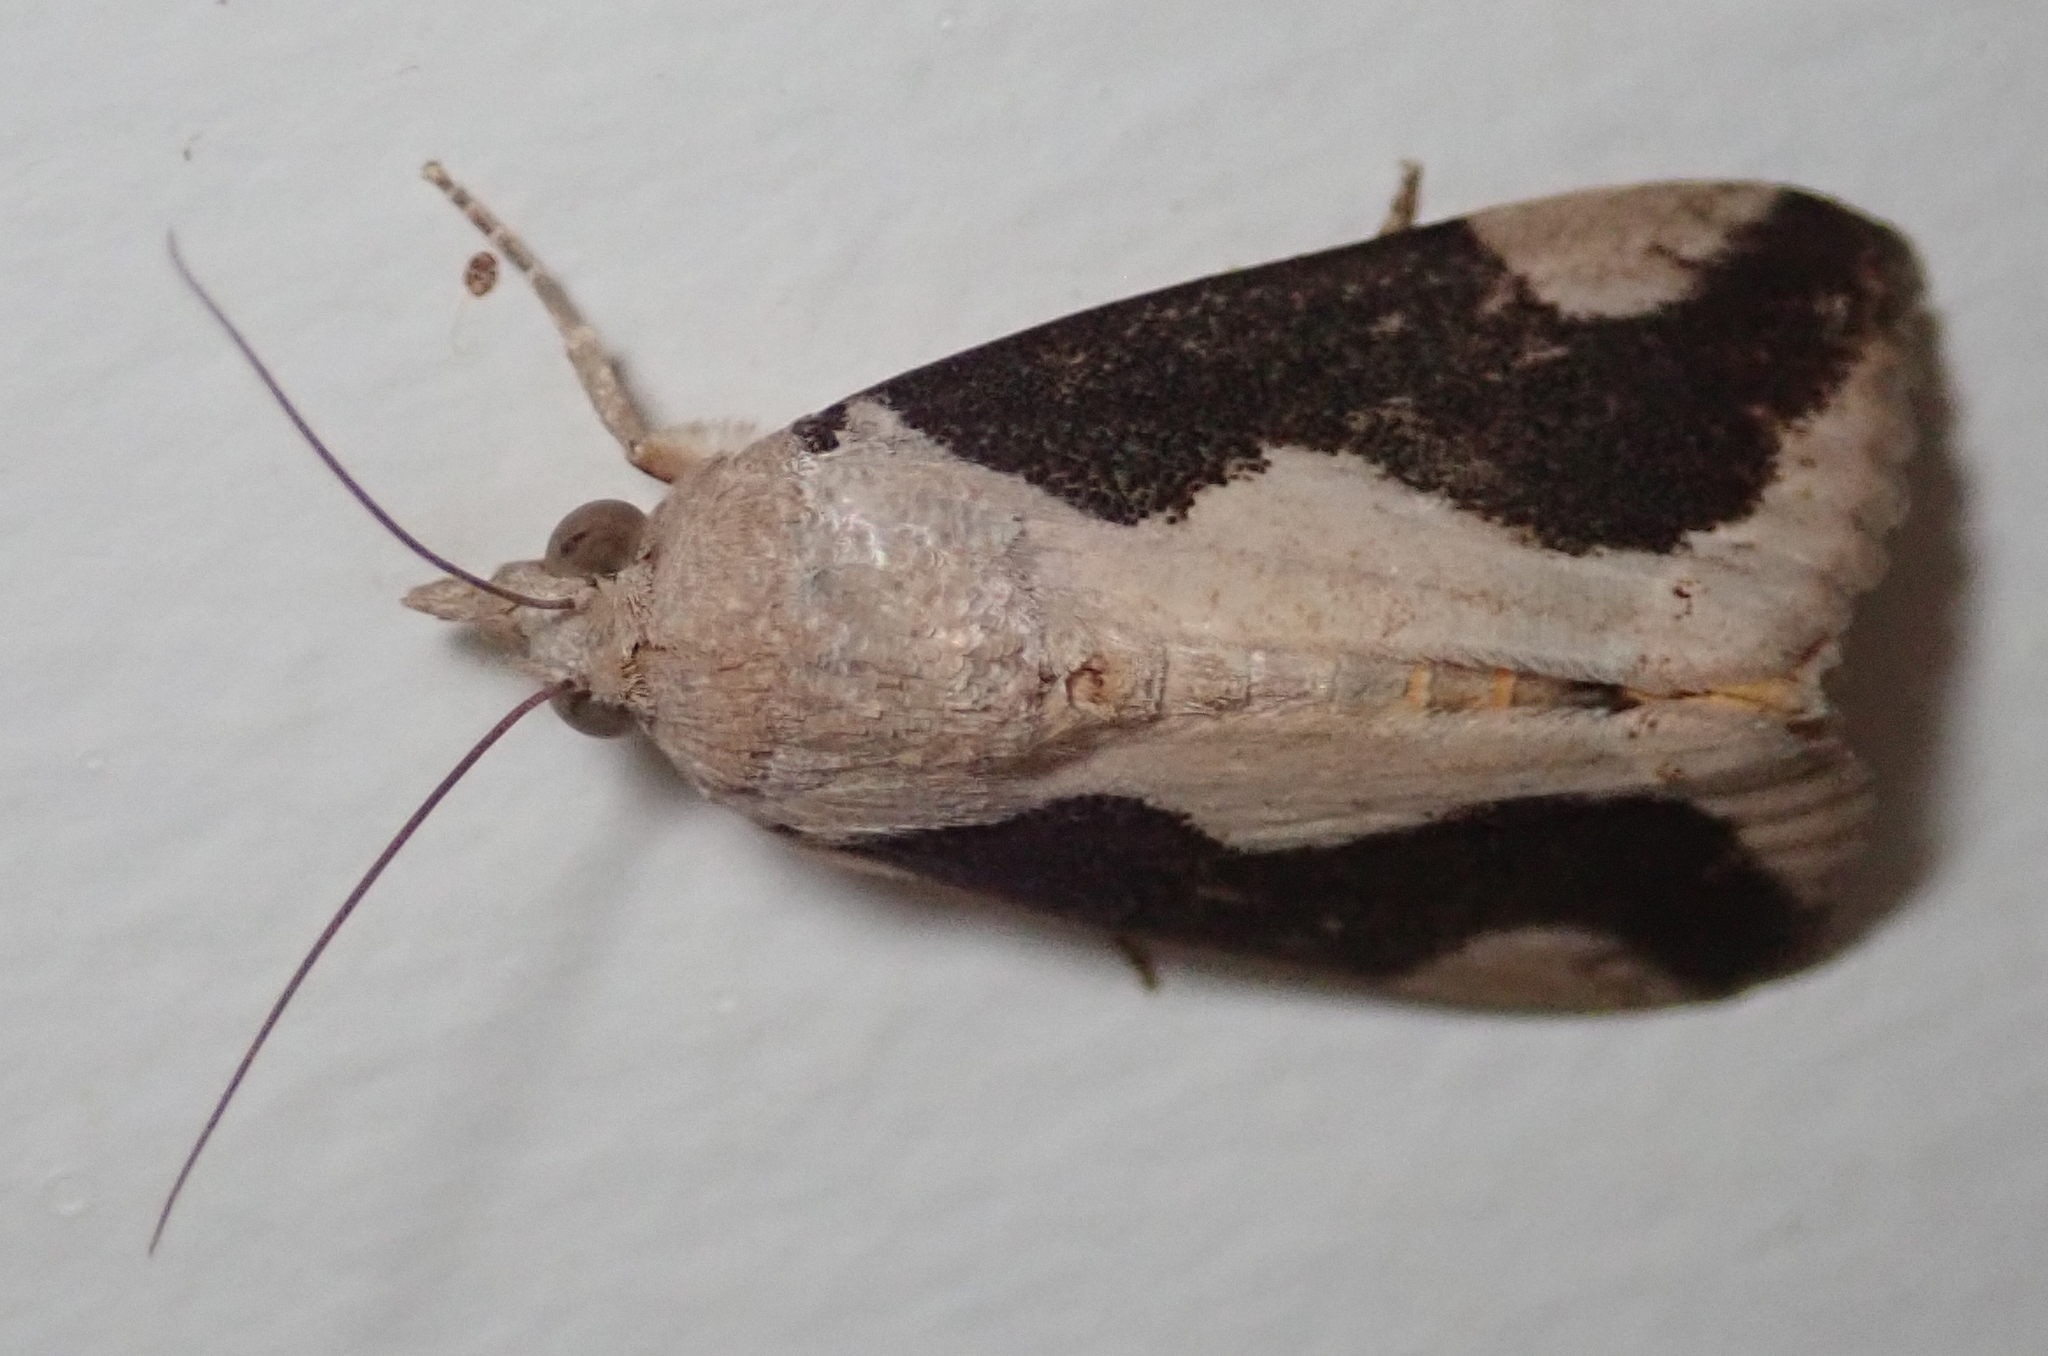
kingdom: Animalia
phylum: Arthropoda
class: Insecta
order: Lepidoptera
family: Erebidae
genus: Hypocala
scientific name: Hypocala rostrata
